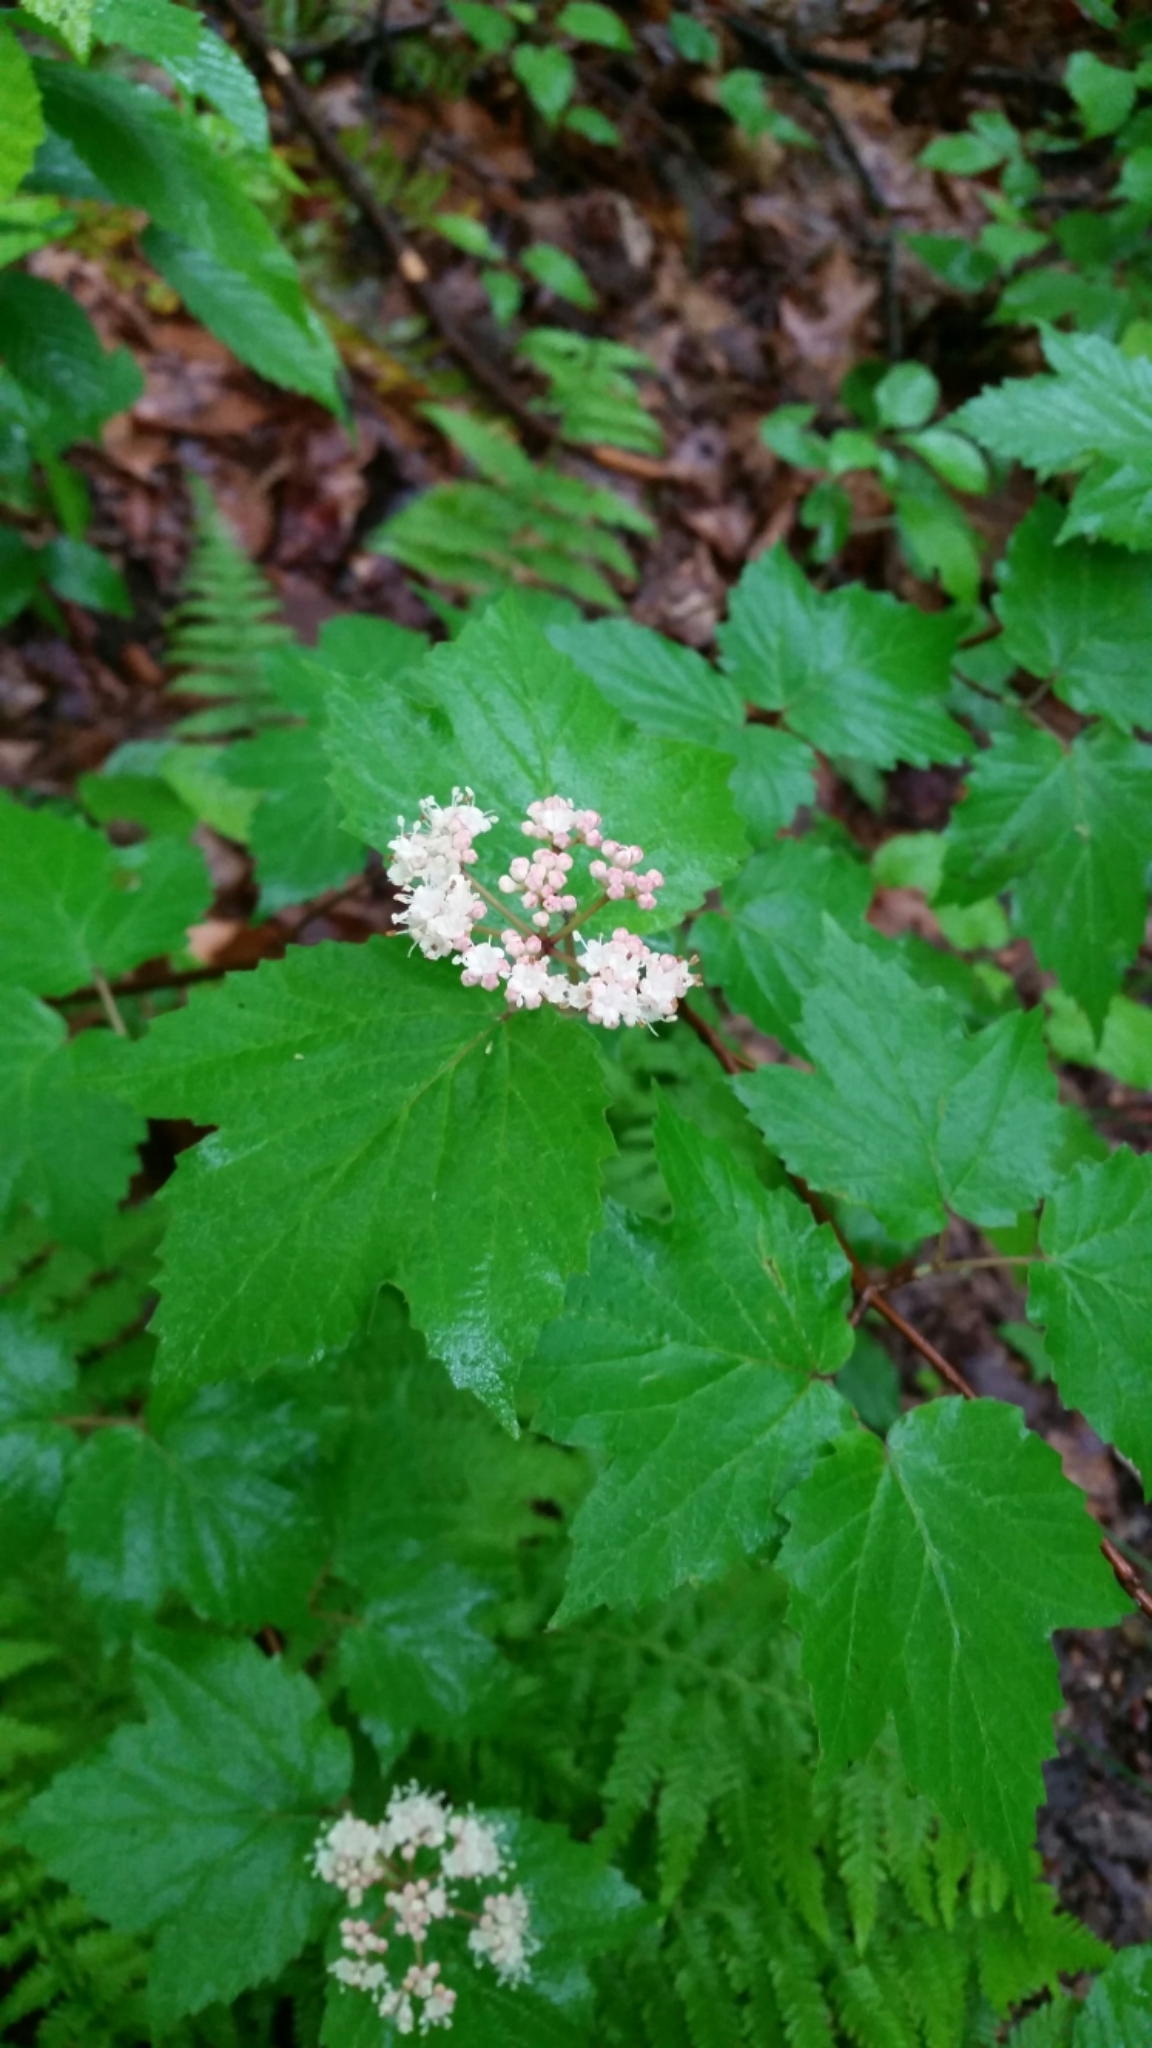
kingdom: Plantae
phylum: Tracheophyta
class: Magnoliopsida
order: Dipsacales
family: Viburnaceae
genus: Viburnum
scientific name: Viburnum acerifolium
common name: Dockmackie
